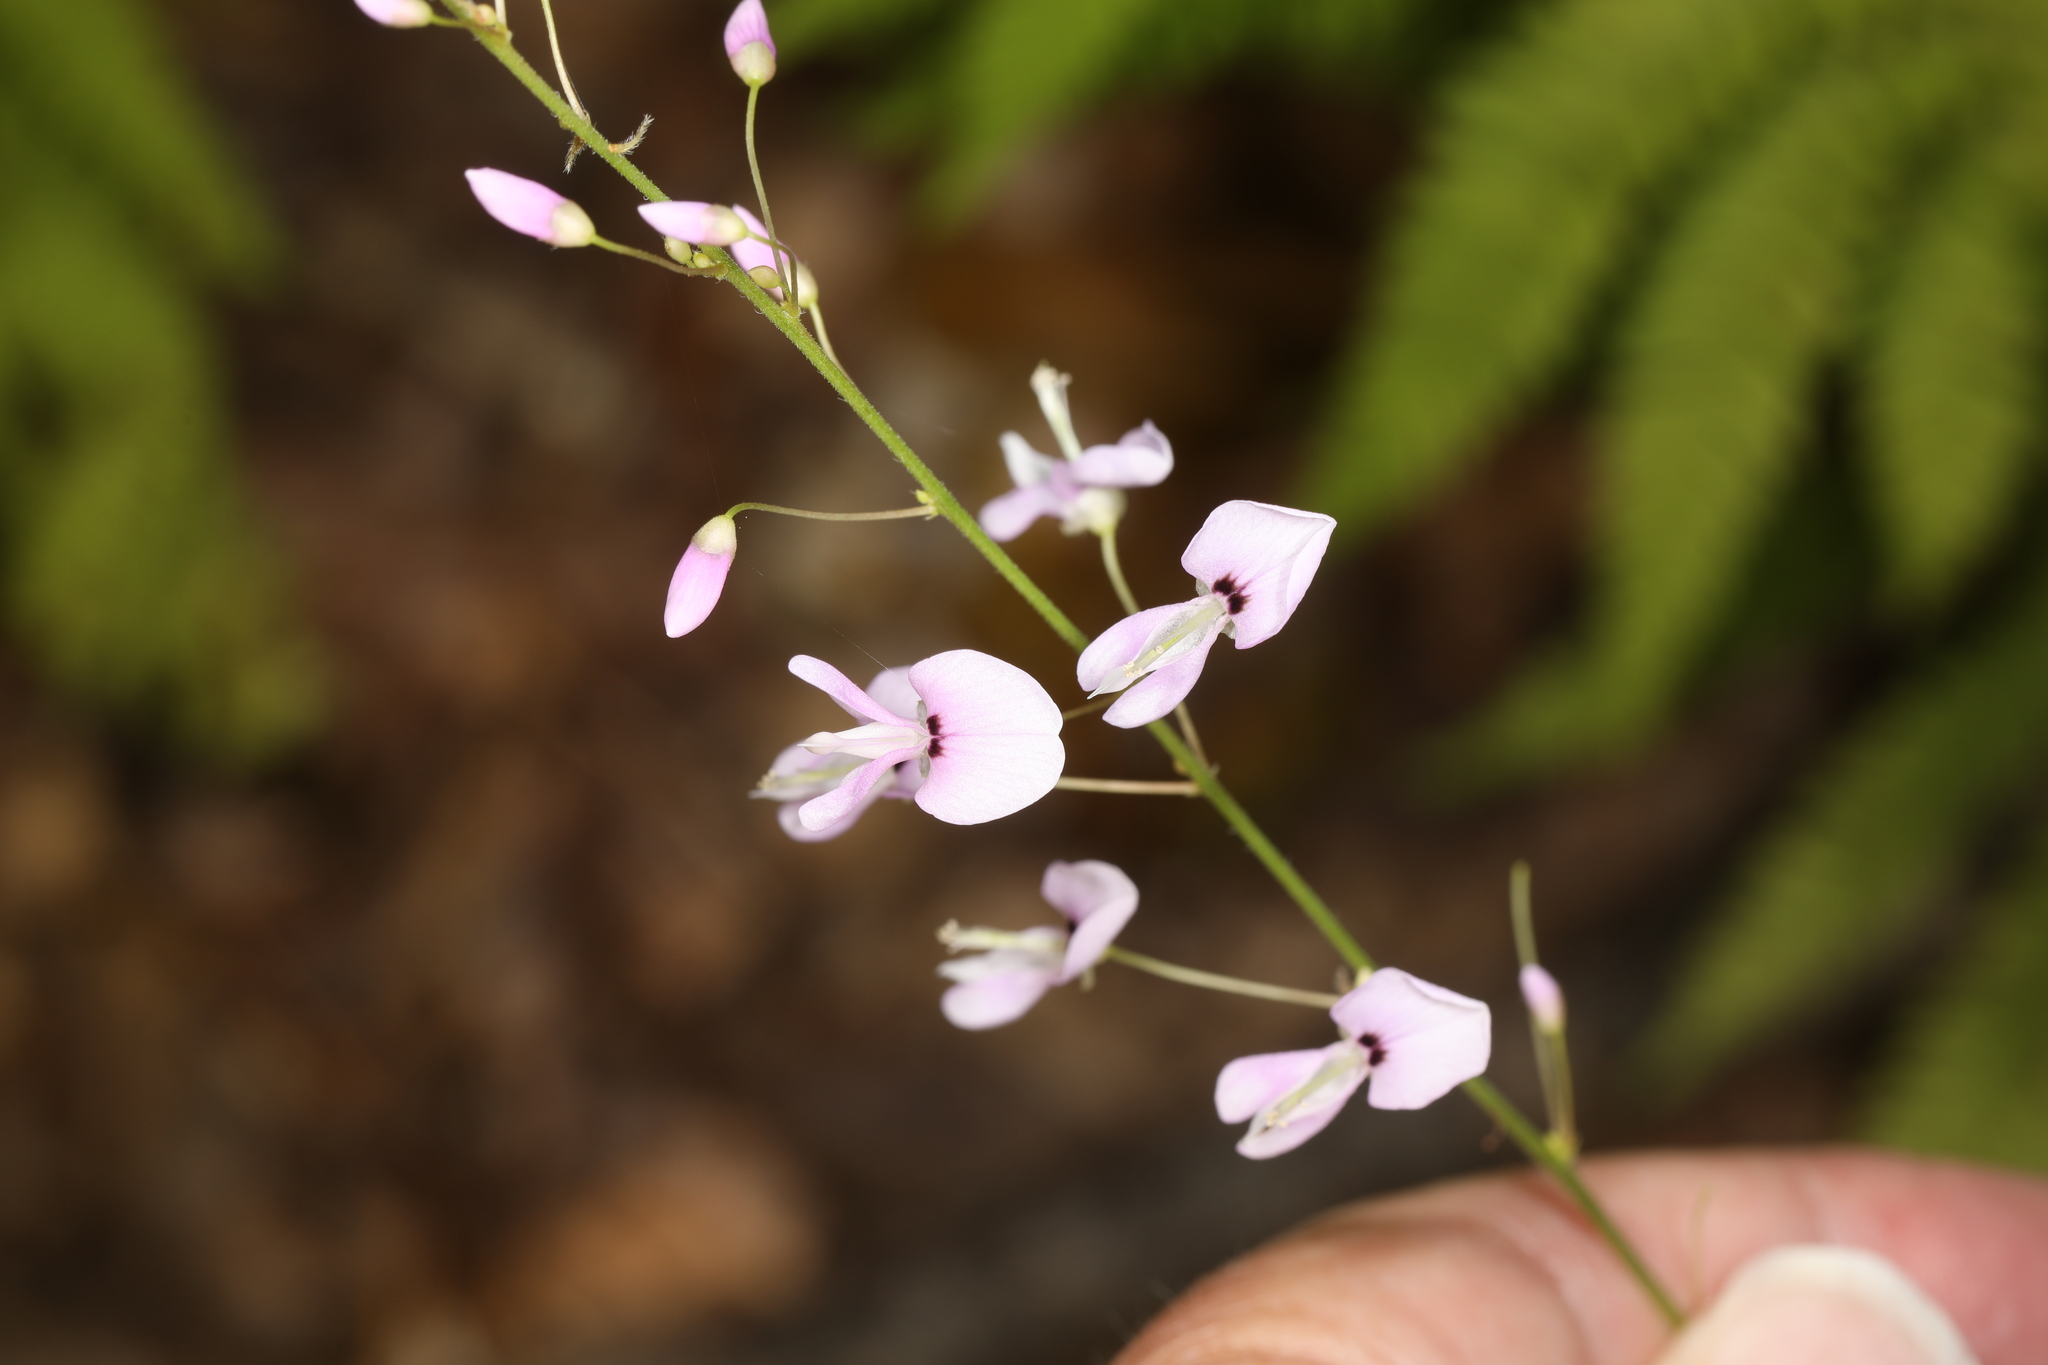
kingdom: Plantae
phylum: Tracheophyta
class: Magnoliopsida
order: Fabales
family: Fabaceae
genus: Hylodesmum
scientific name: Hylodesmum nudiflorum
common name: Bare-stemmed tick-trefoil
